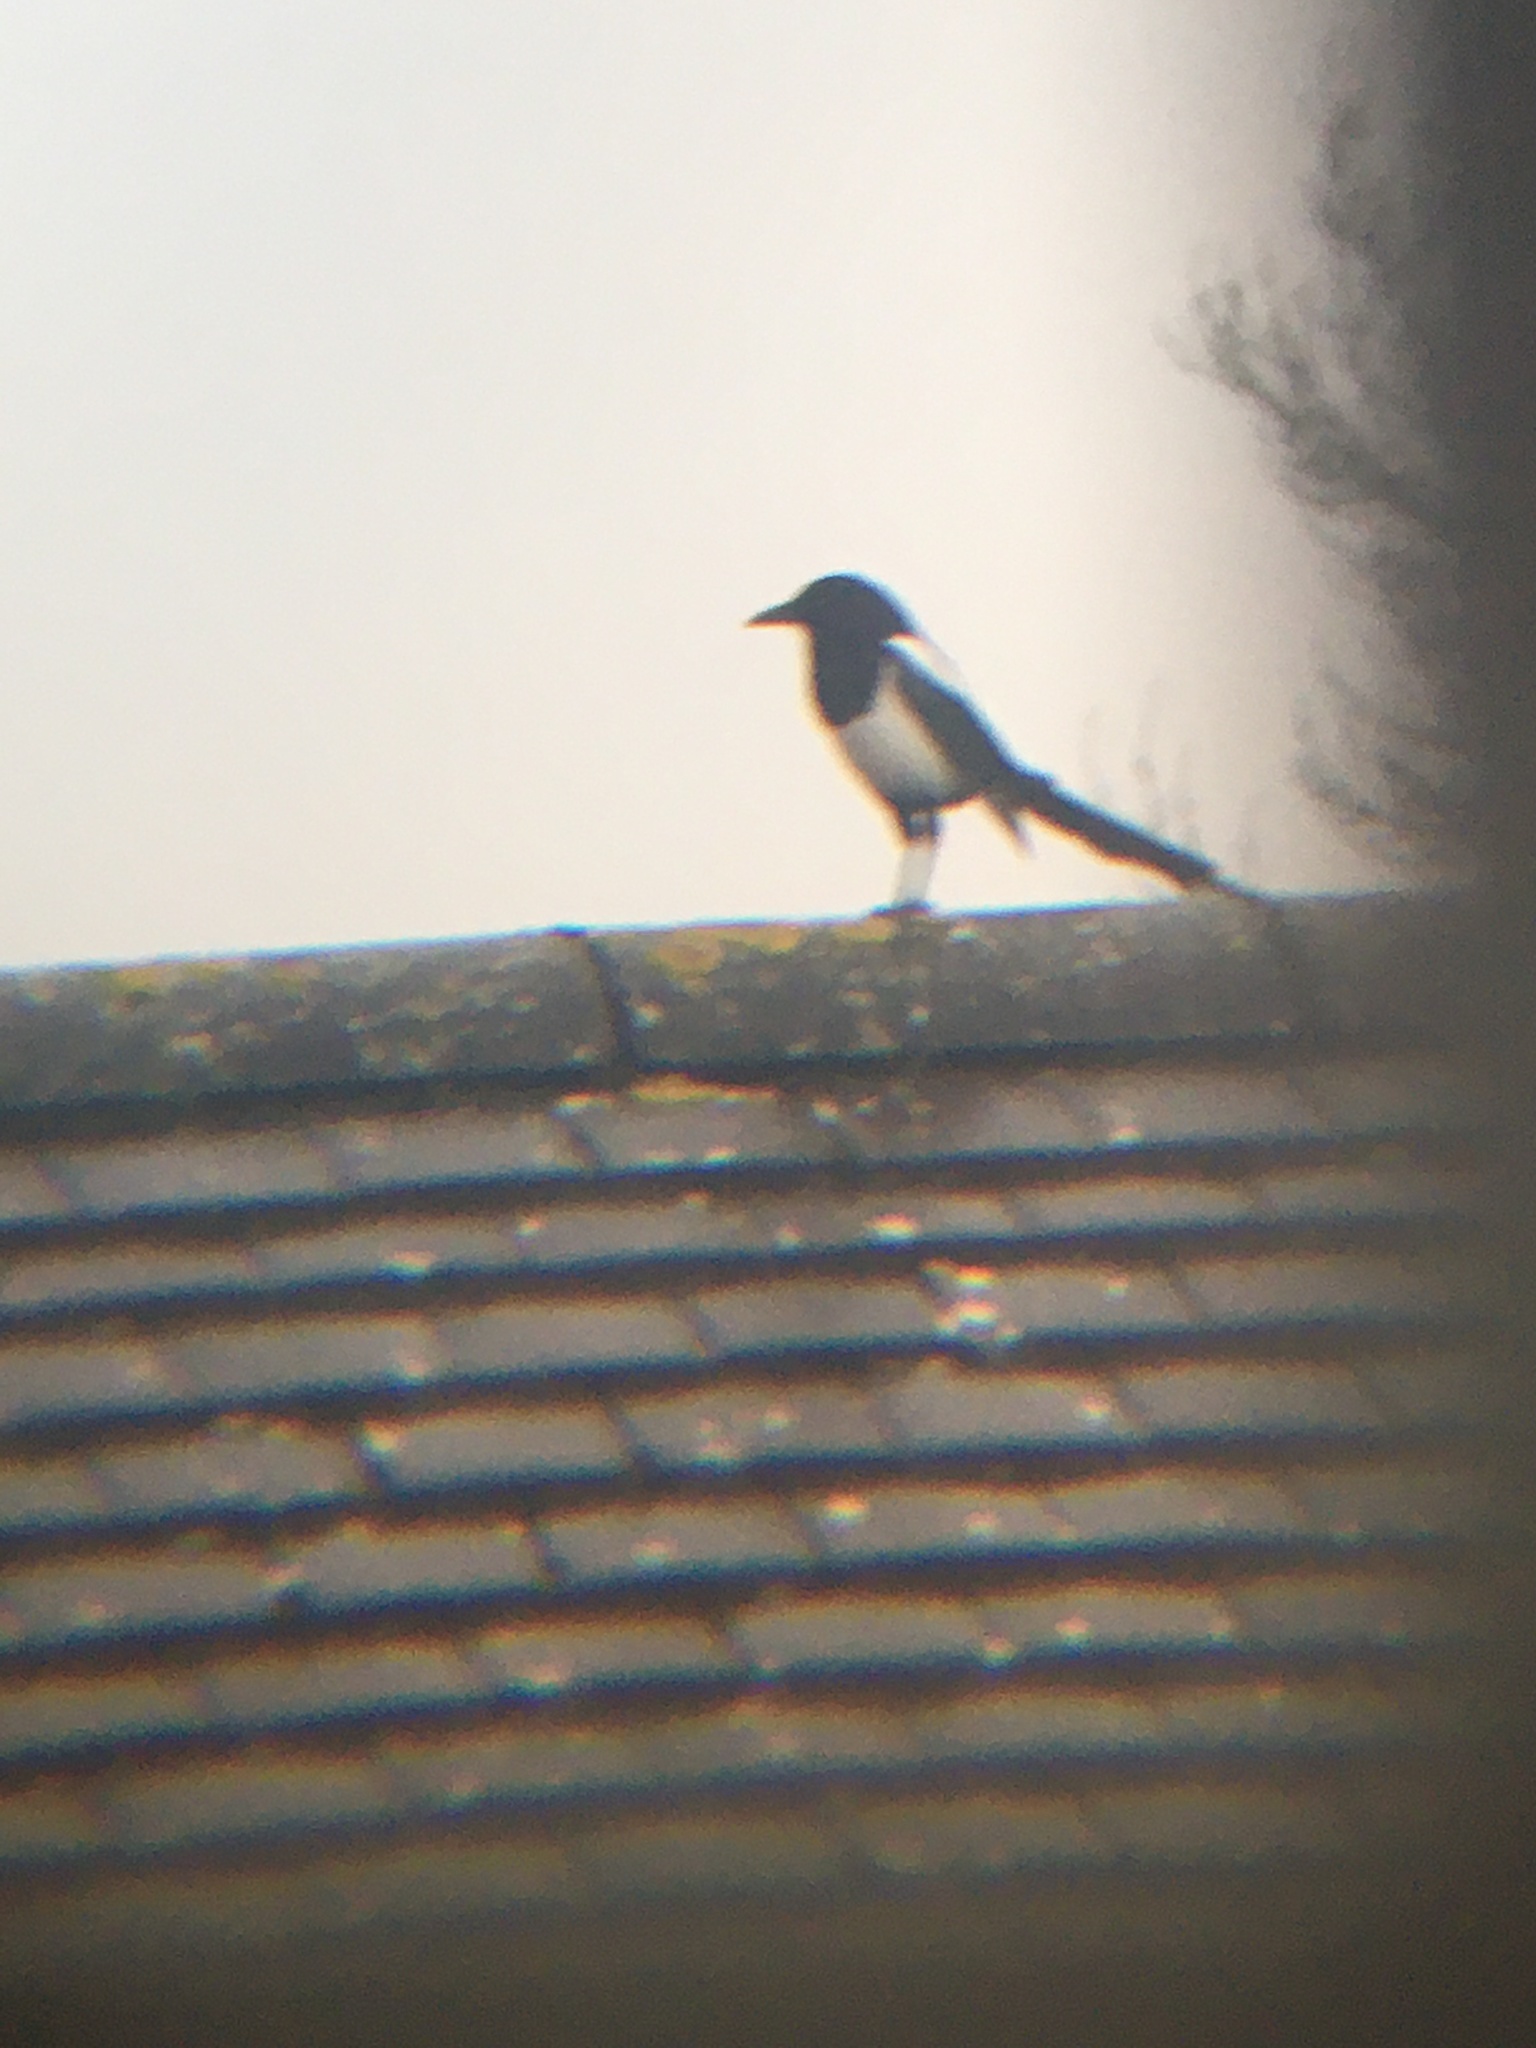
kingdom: Animalia
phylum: Chordata
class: Aves
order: Passeriformes
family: Corvidae
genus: Pica
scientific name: Pica pica
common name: Eurasian magpie
